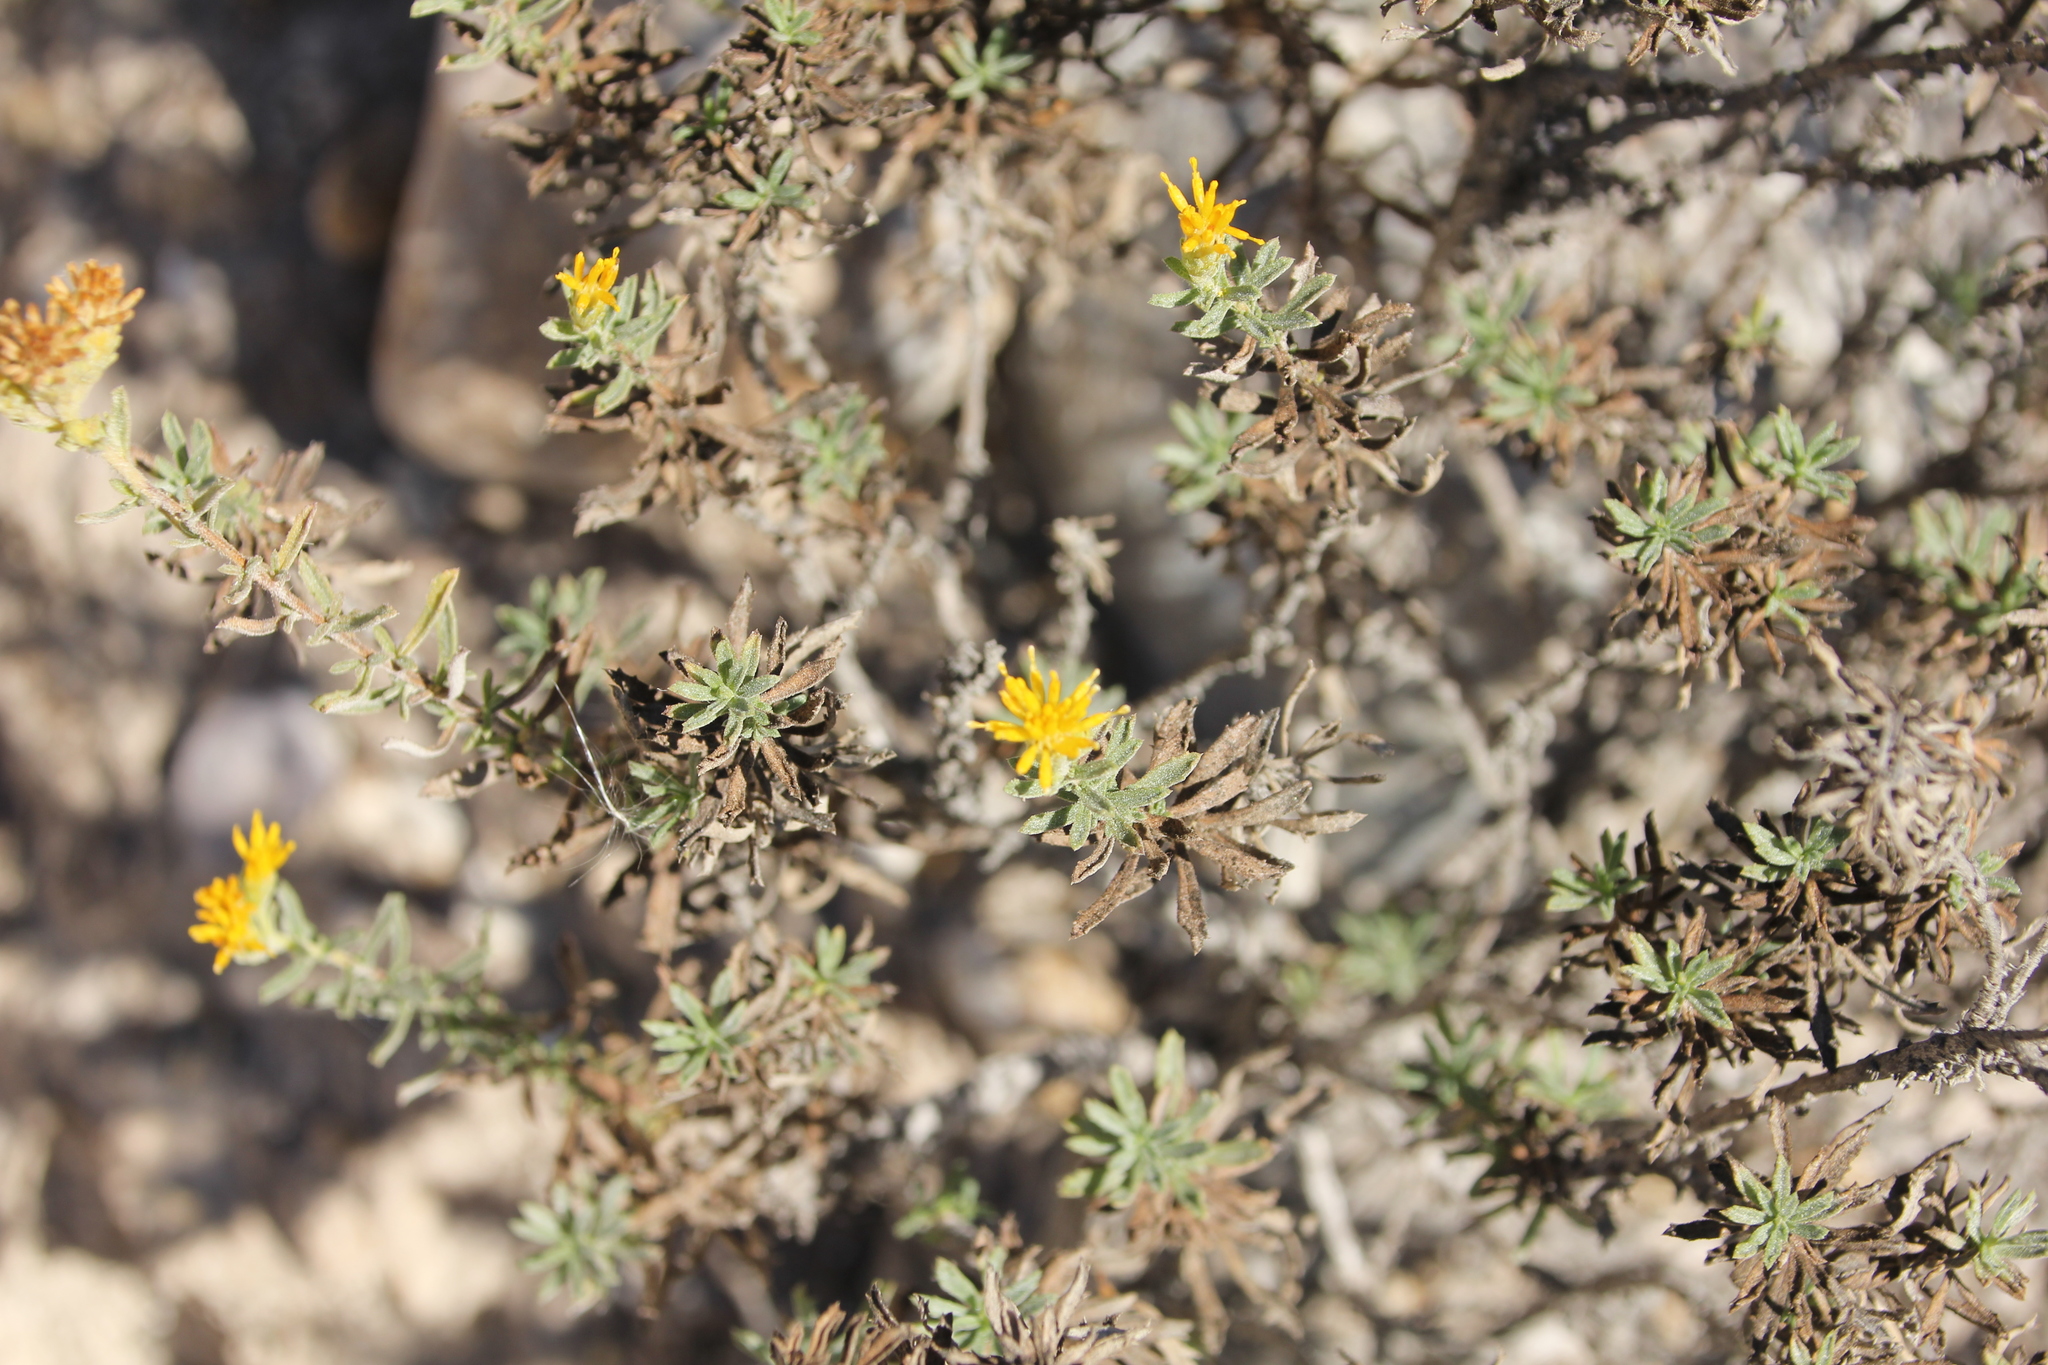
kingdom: Plantae
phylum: Tracheophyta
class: Magnoliopsida
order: Asterales
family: Asteraceae
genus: Isocoma
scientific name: Isocoma menziesii
